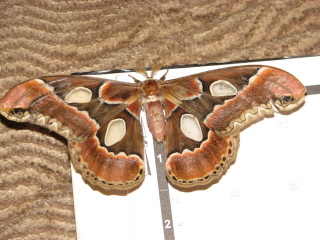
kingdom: Animalia
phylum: Arthropoda
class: Insecta
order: Lepidoptera
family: Saturniidae
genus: Rothschildia
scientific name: Rothschildia lebeau
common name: Lebeau's rothschildia
